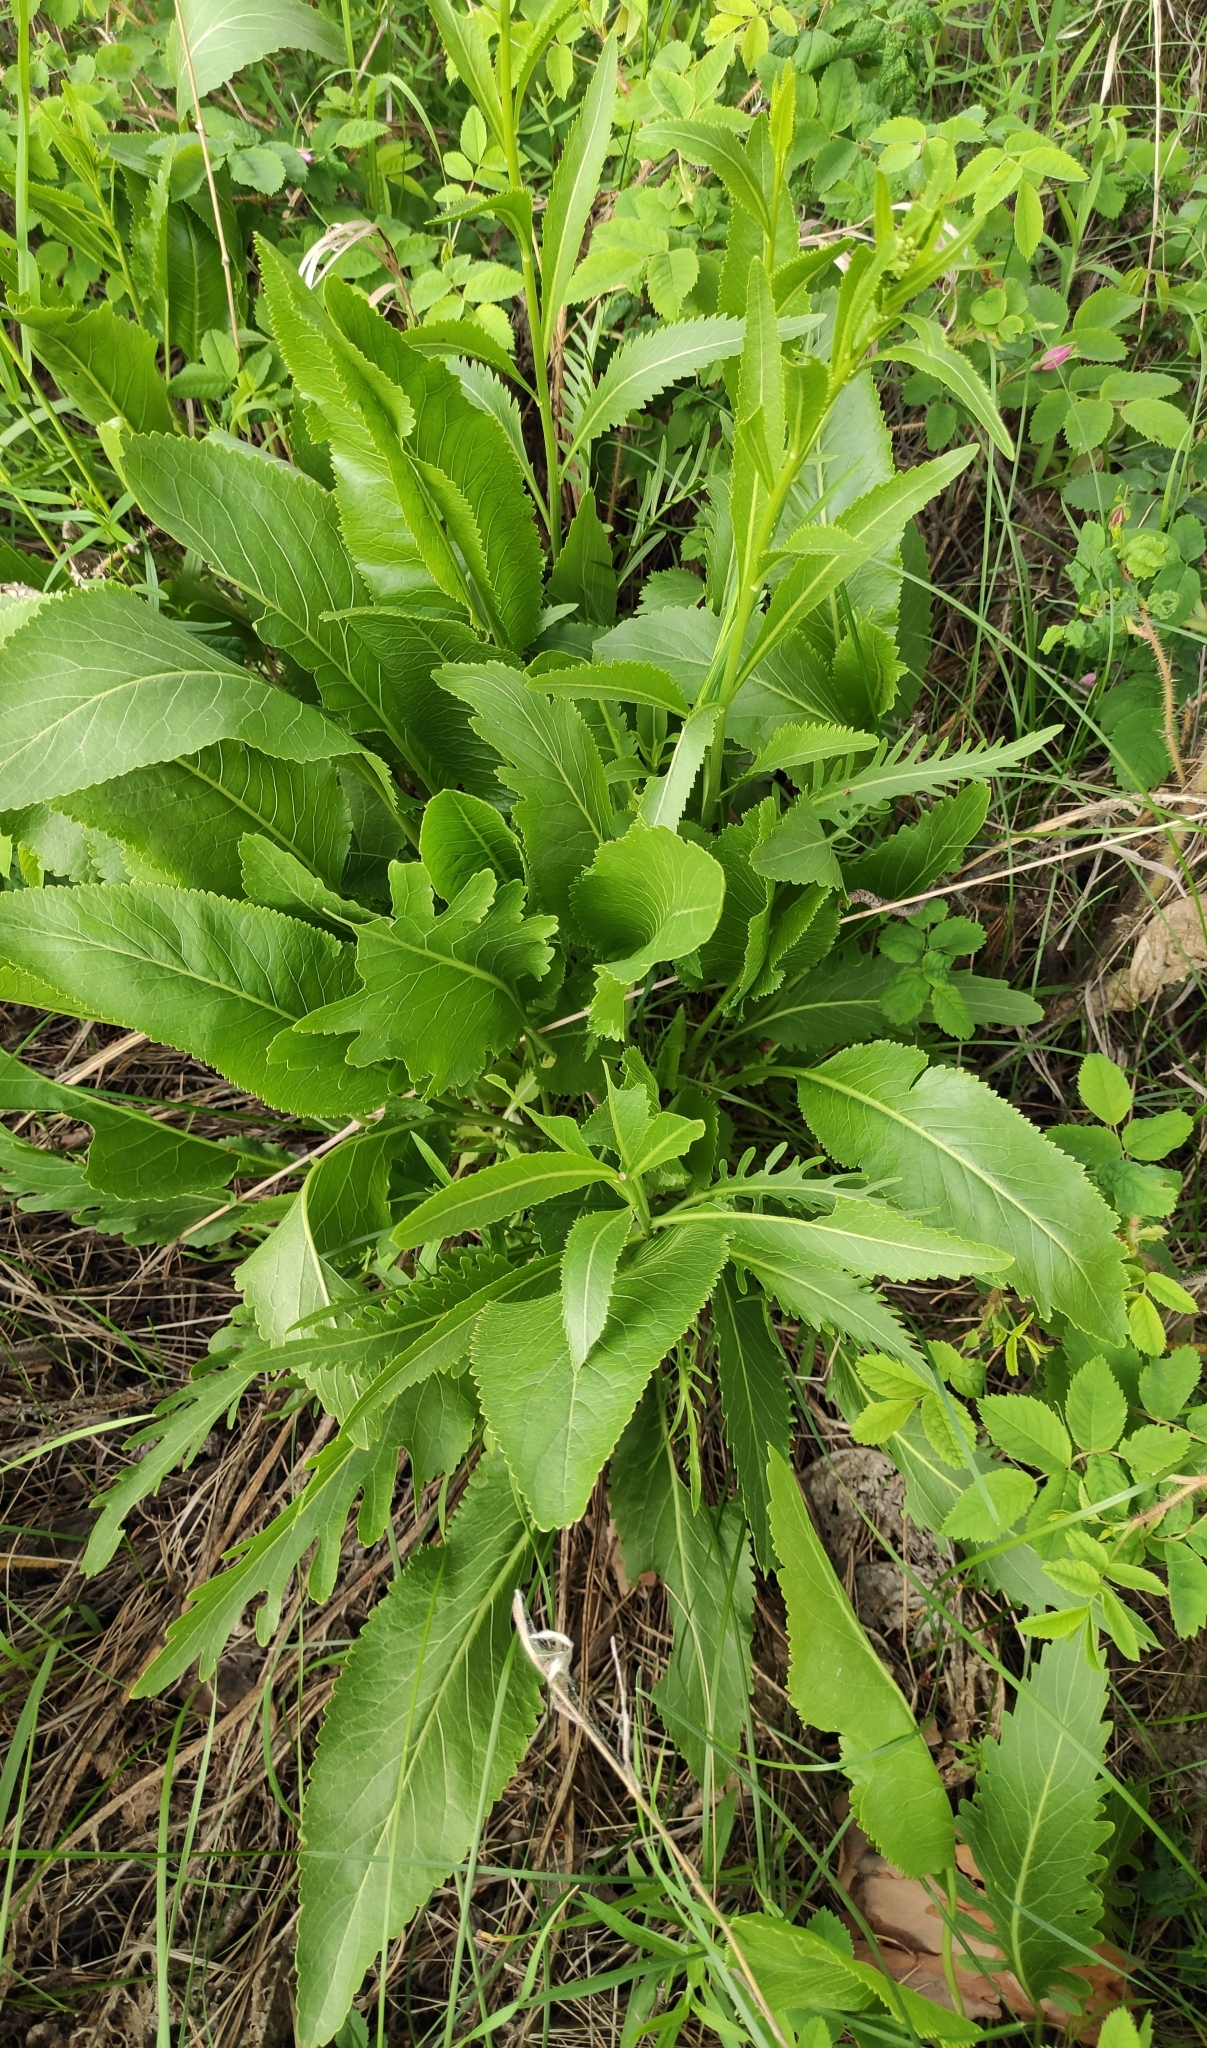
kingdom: Plantae
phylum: Tracheophyta
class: Magnoliopsida
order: Brassicales
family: Brassicaceae
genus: Armoracia
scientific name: Armoracia rusticana
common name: Horseradish
